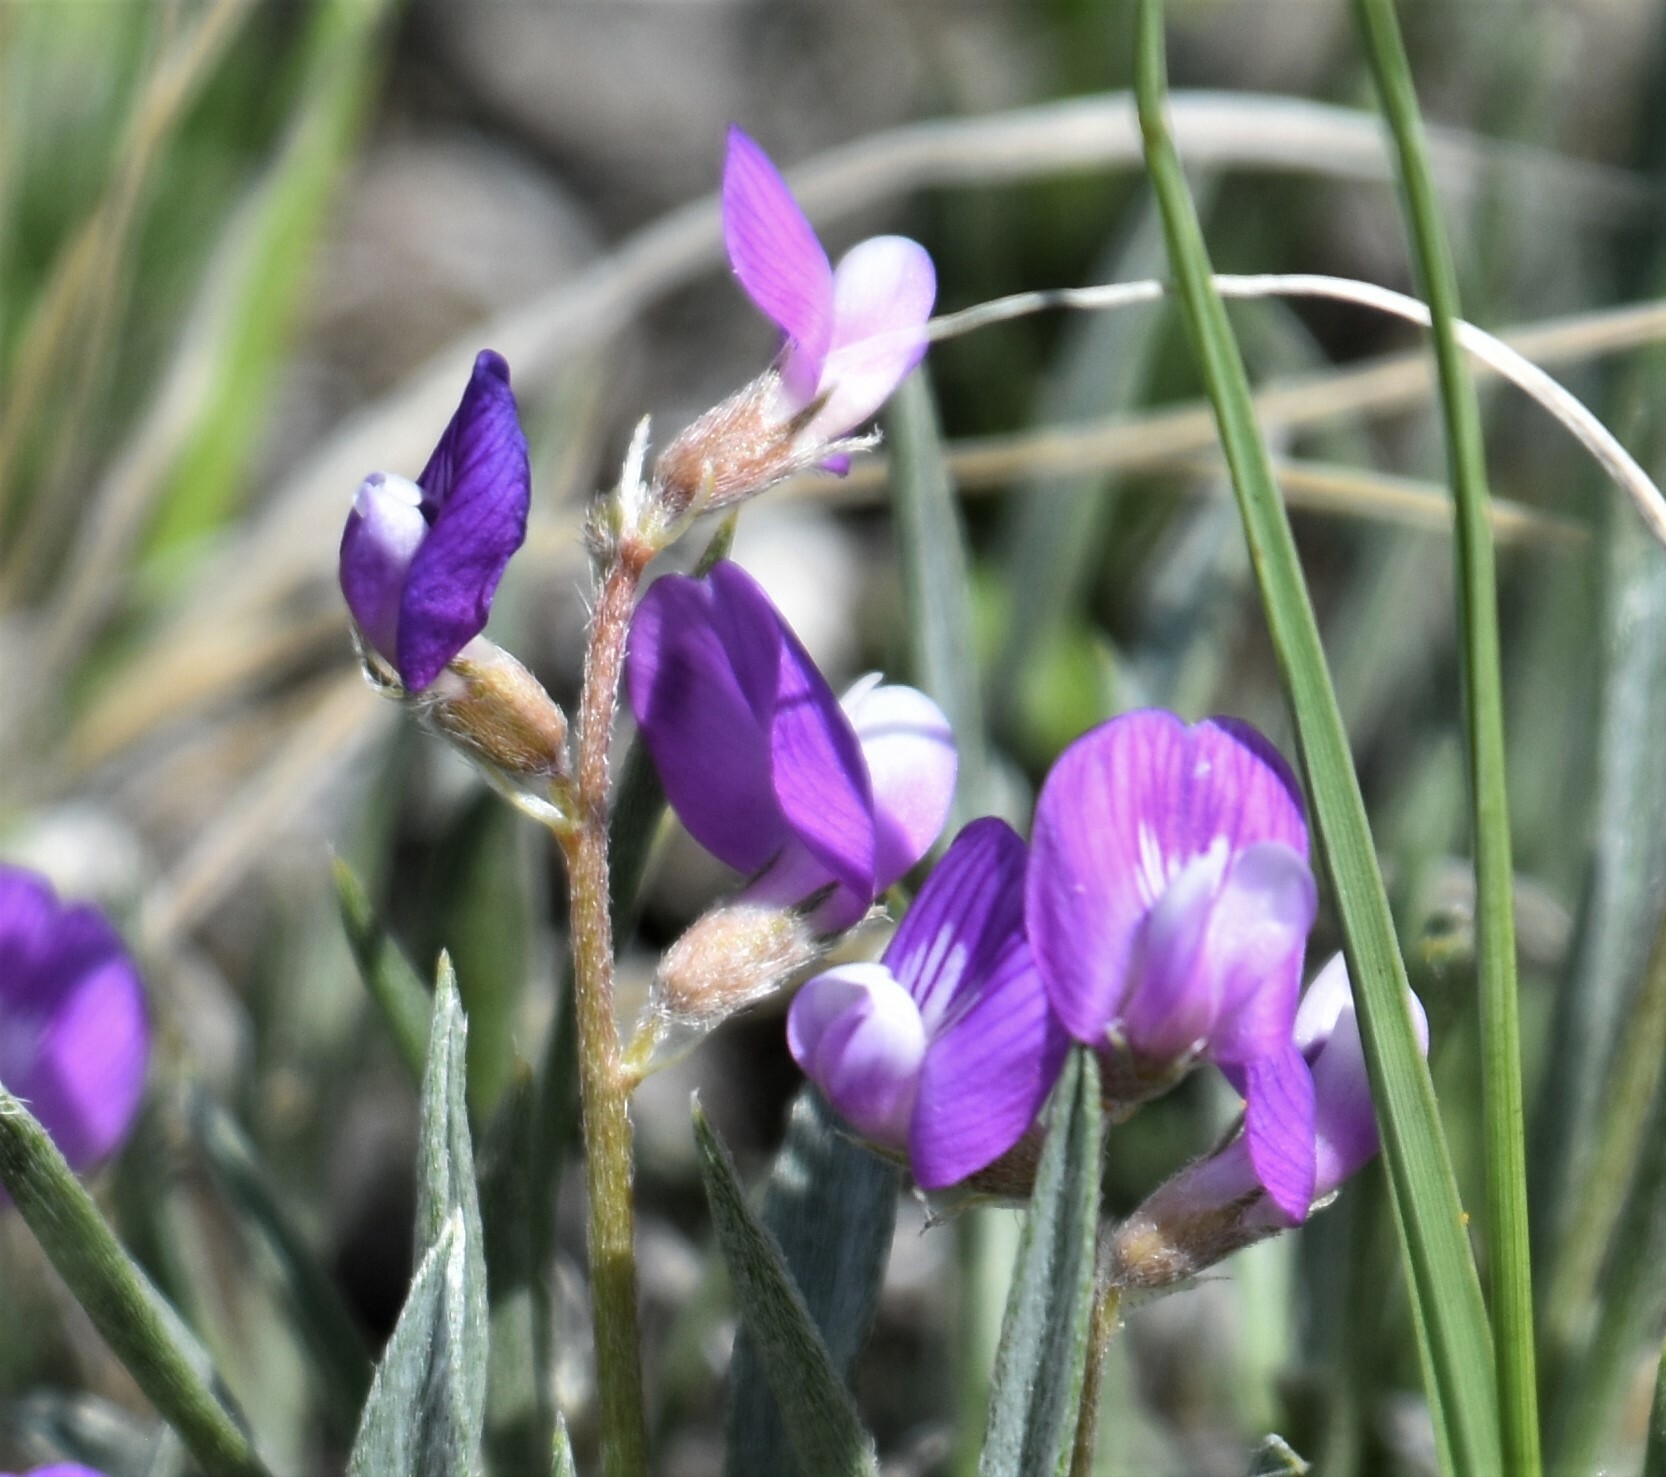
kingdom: Plantae
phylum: Tracheophyta
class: Magnoliopsida
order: Fabales
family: Fabaceae
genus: Astragalus
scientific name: Astragalus spatulatus
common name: Draba milk-vetch
